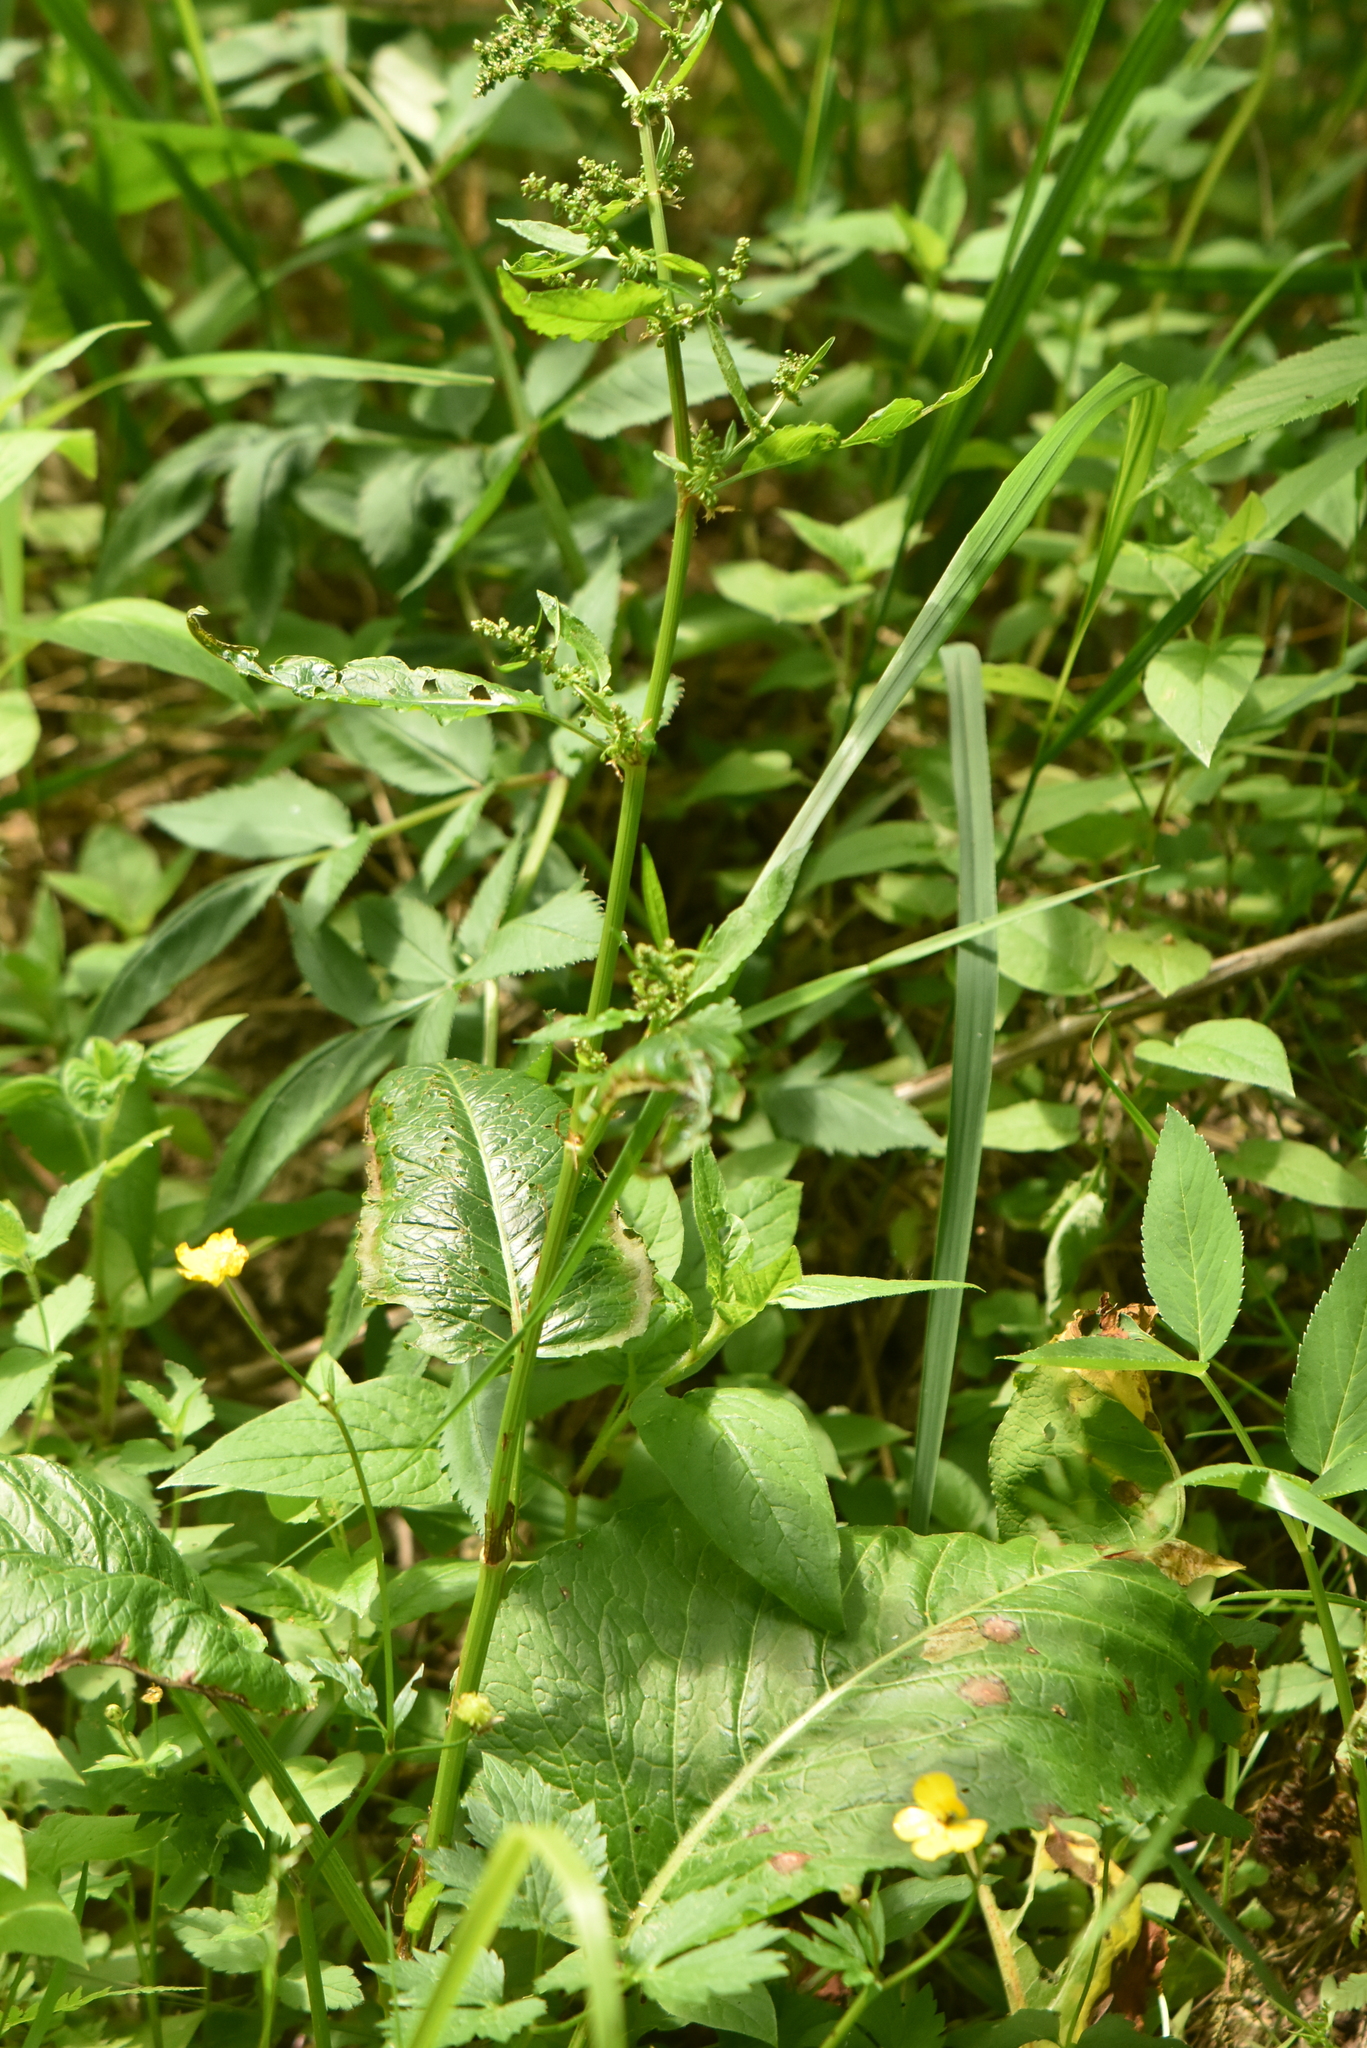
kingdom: Plantae
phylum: Tracheophyta
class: Magnoliopsida
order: Caryophyllales
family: Polygonaceae
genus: Rumex
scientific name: Rumex obtusifolius
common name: Bitter dock
